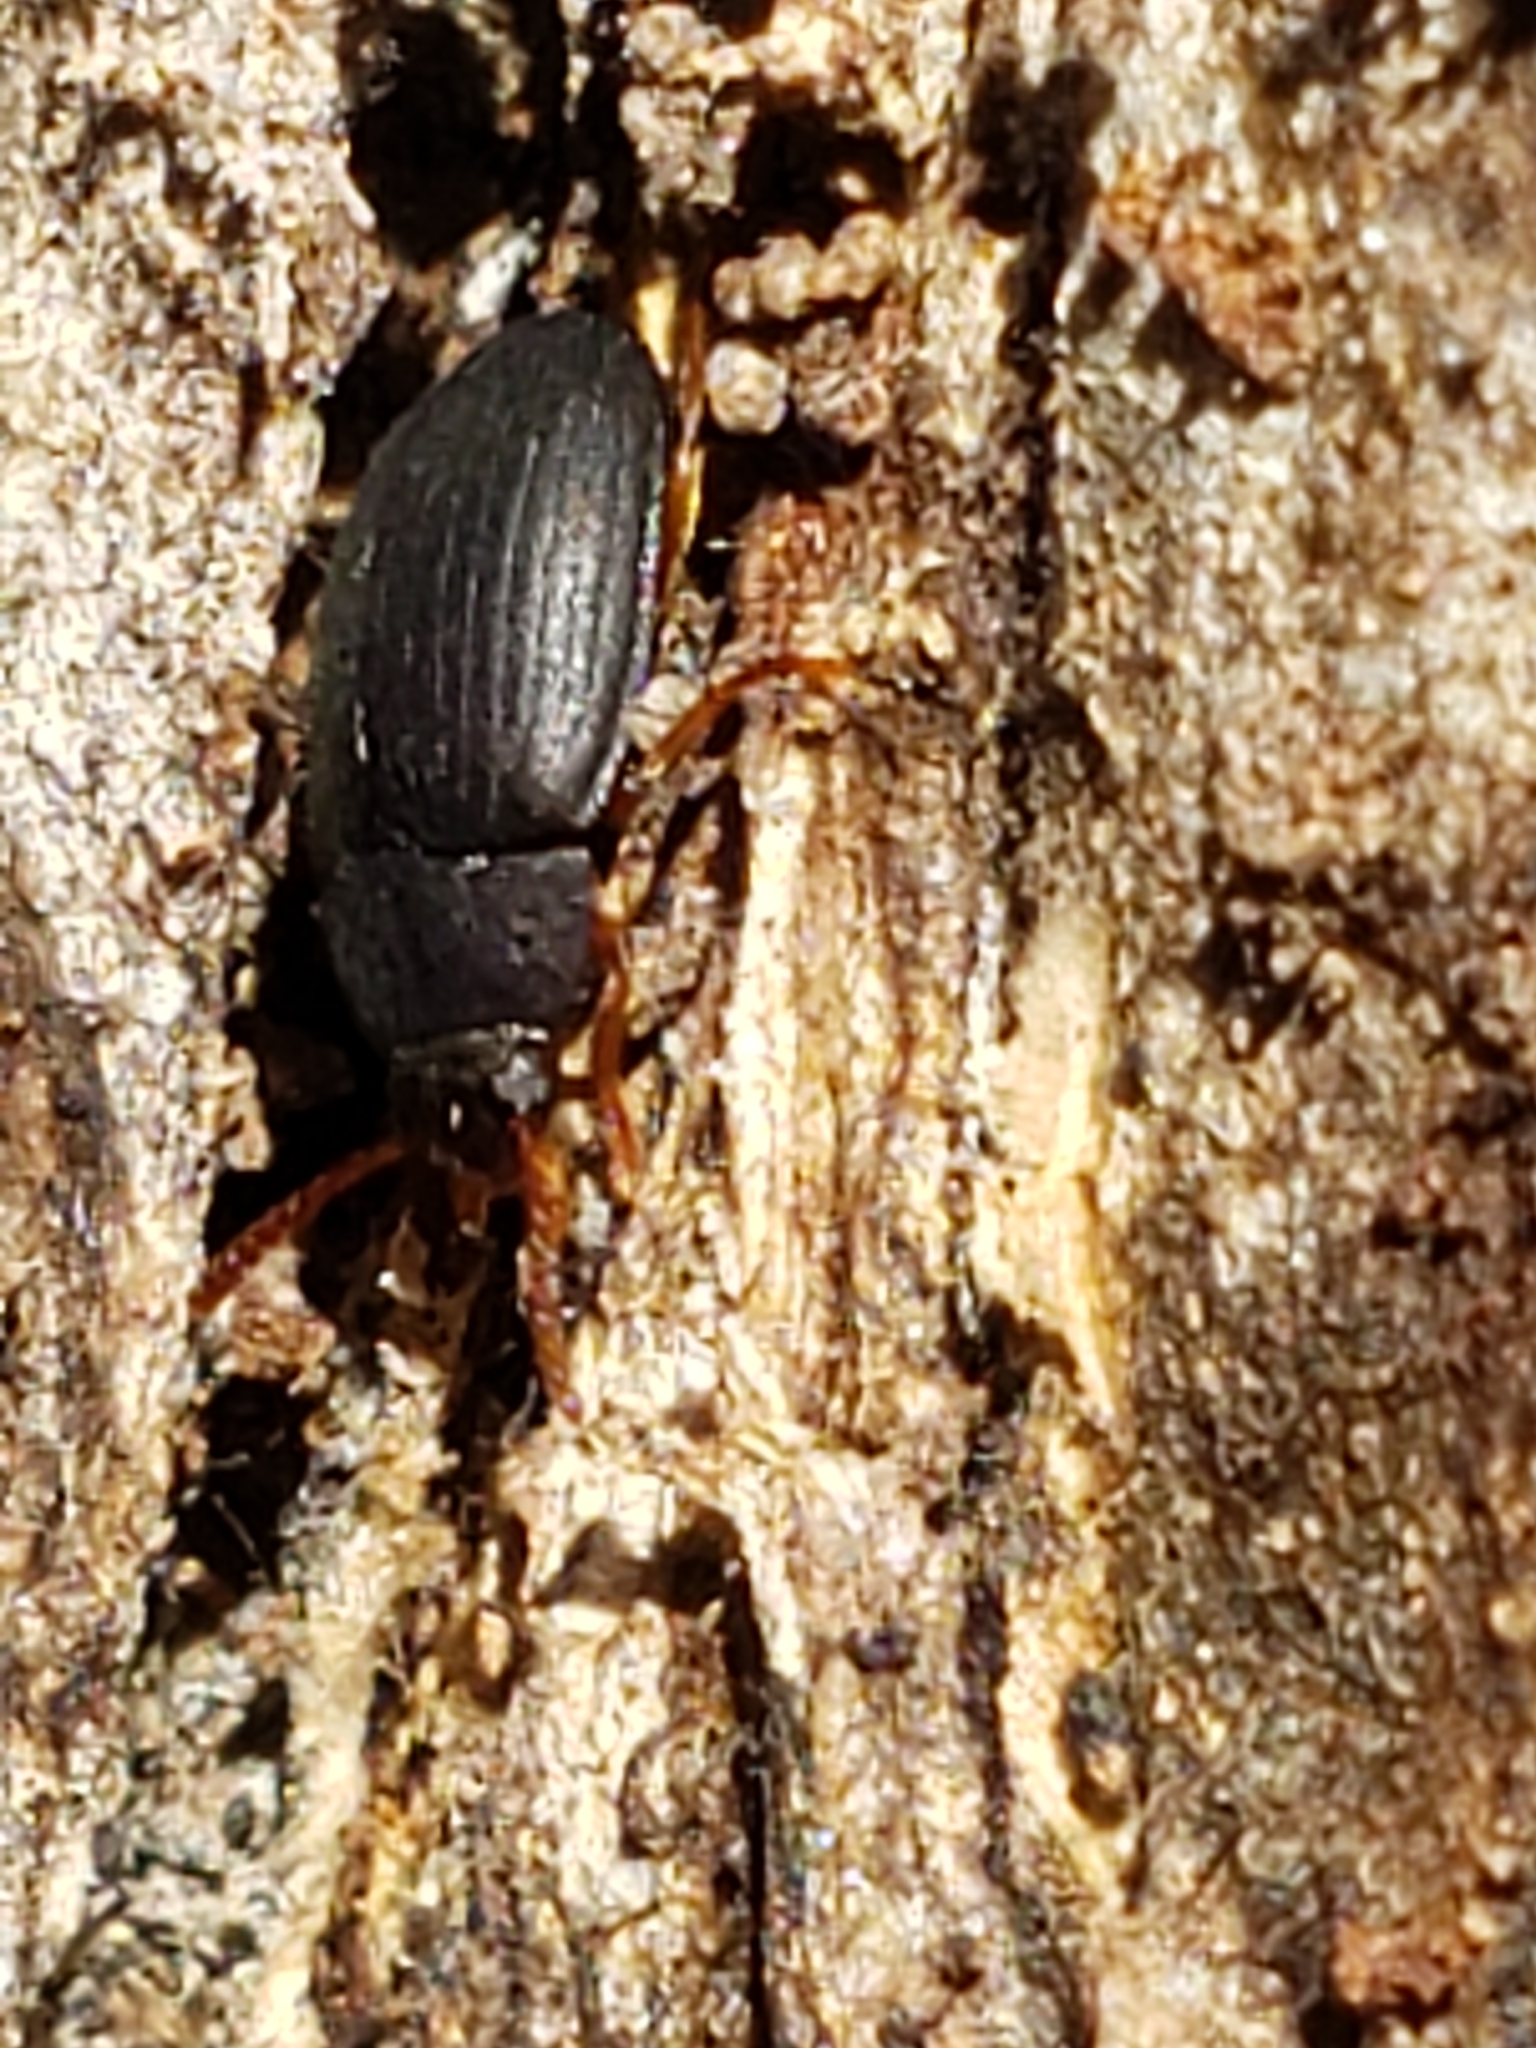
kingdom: Animalia
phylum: Arthropoda
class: Insecta
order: Coleoptera
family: Tenebrionidae
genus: Platydema
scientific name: Platydema ruficornis
